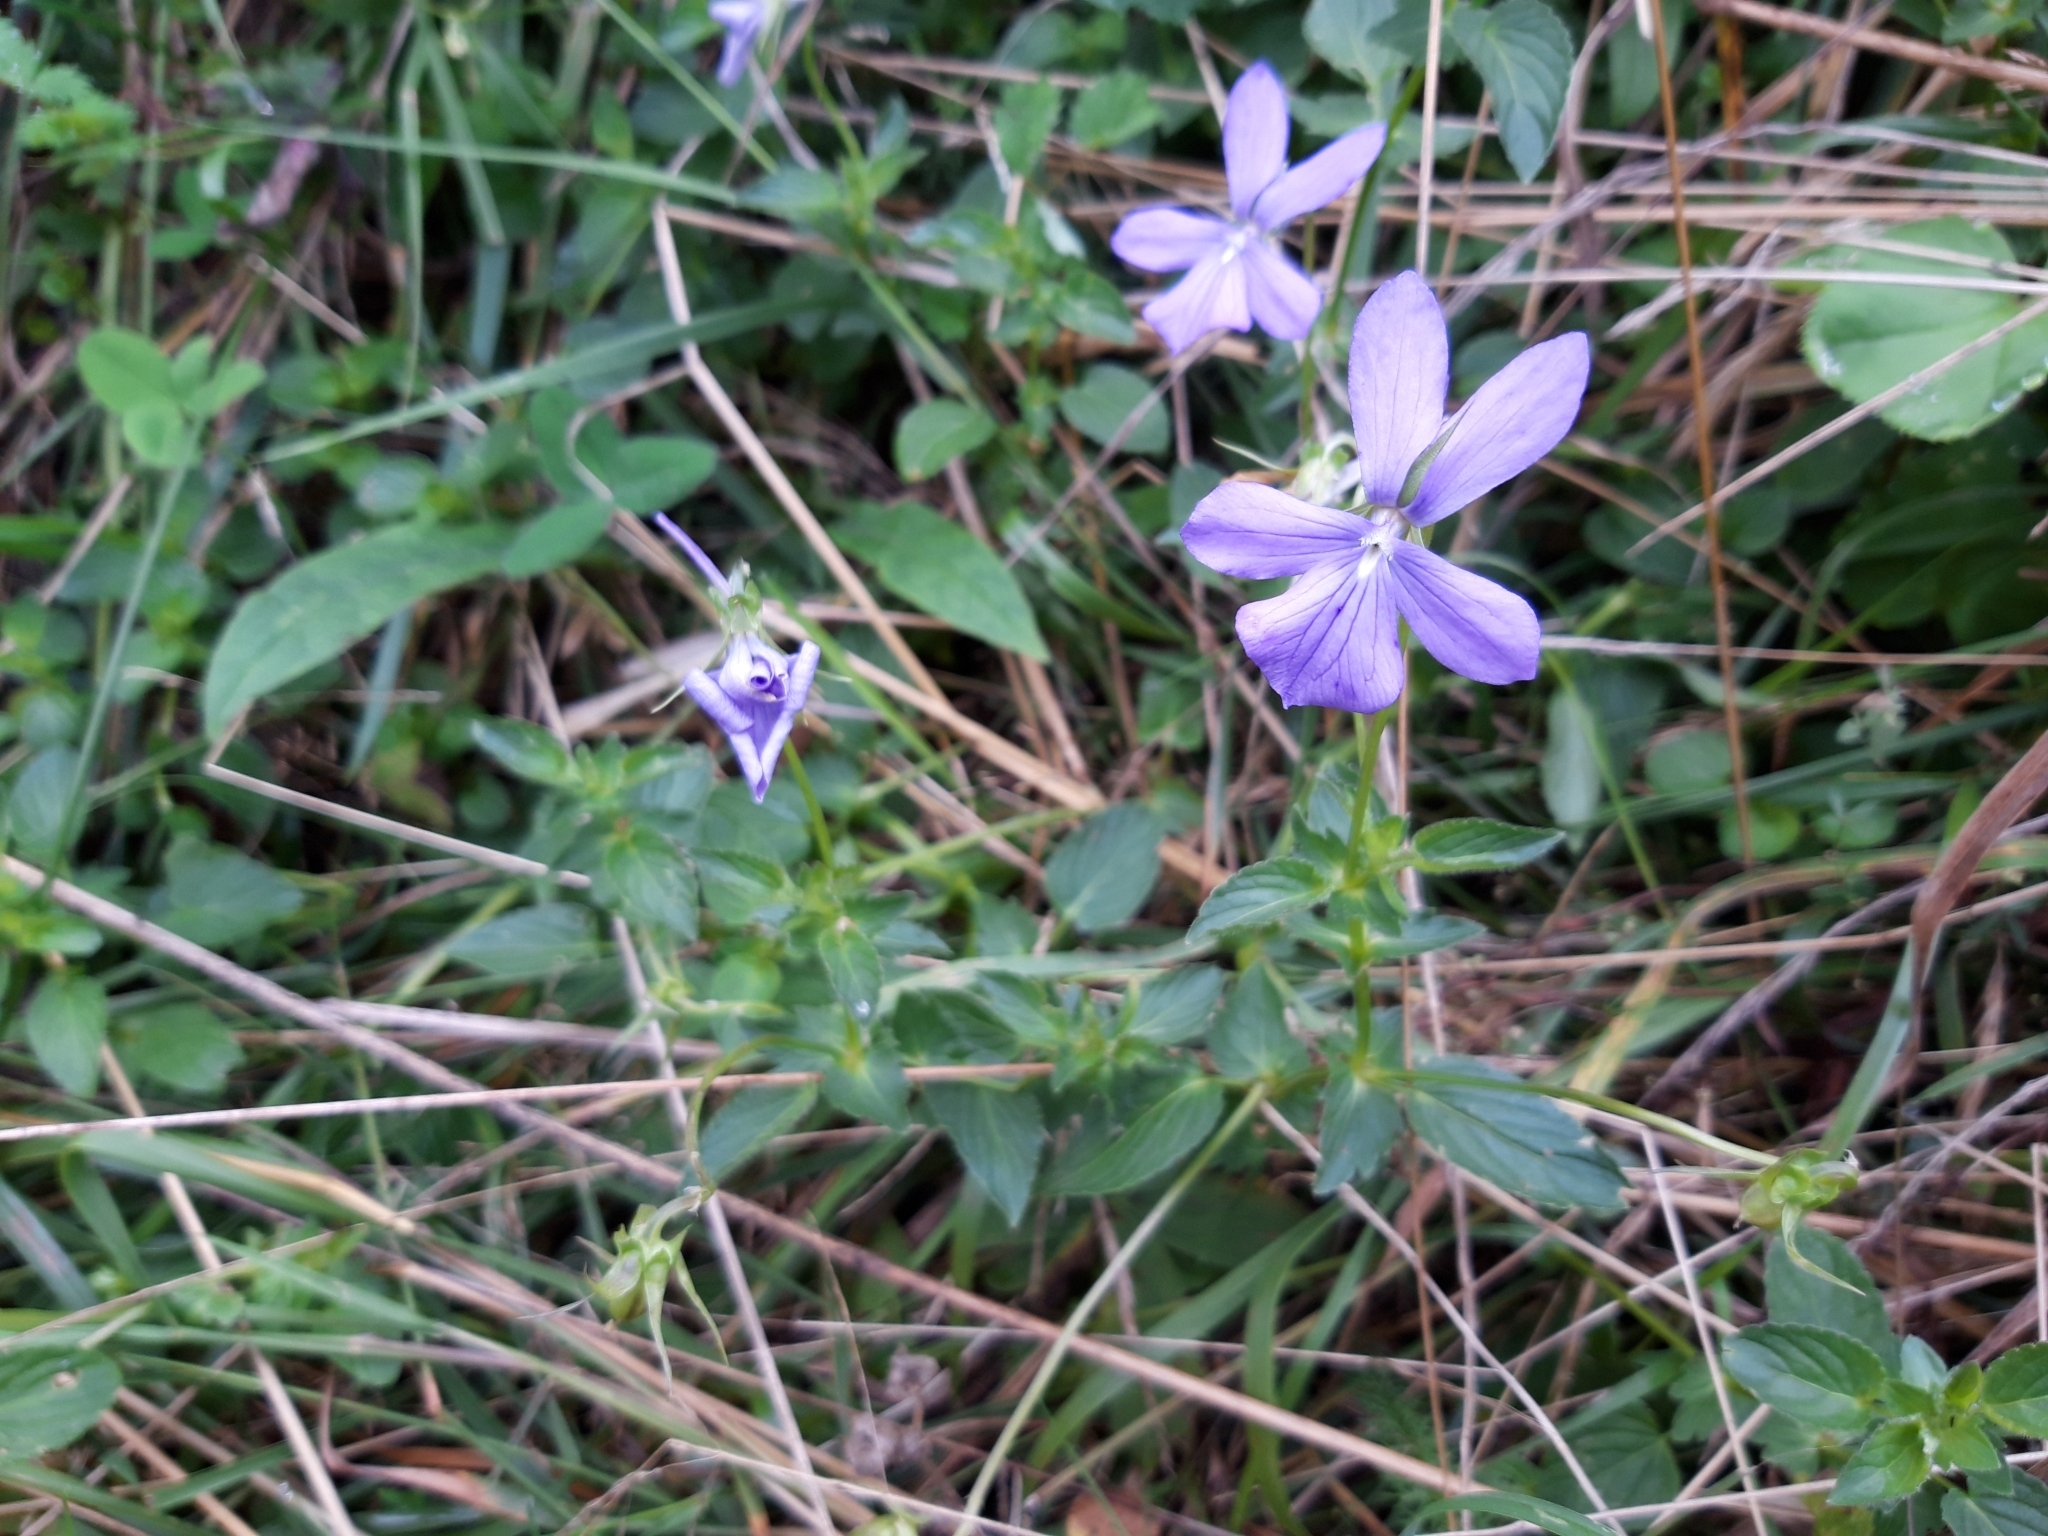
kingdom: Plantae
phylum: Tracheophyta
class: Magnoliopsida
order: Malpighiales
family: Violaceae
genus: Viola
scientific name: Viola cornuta
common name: Horned pansy
